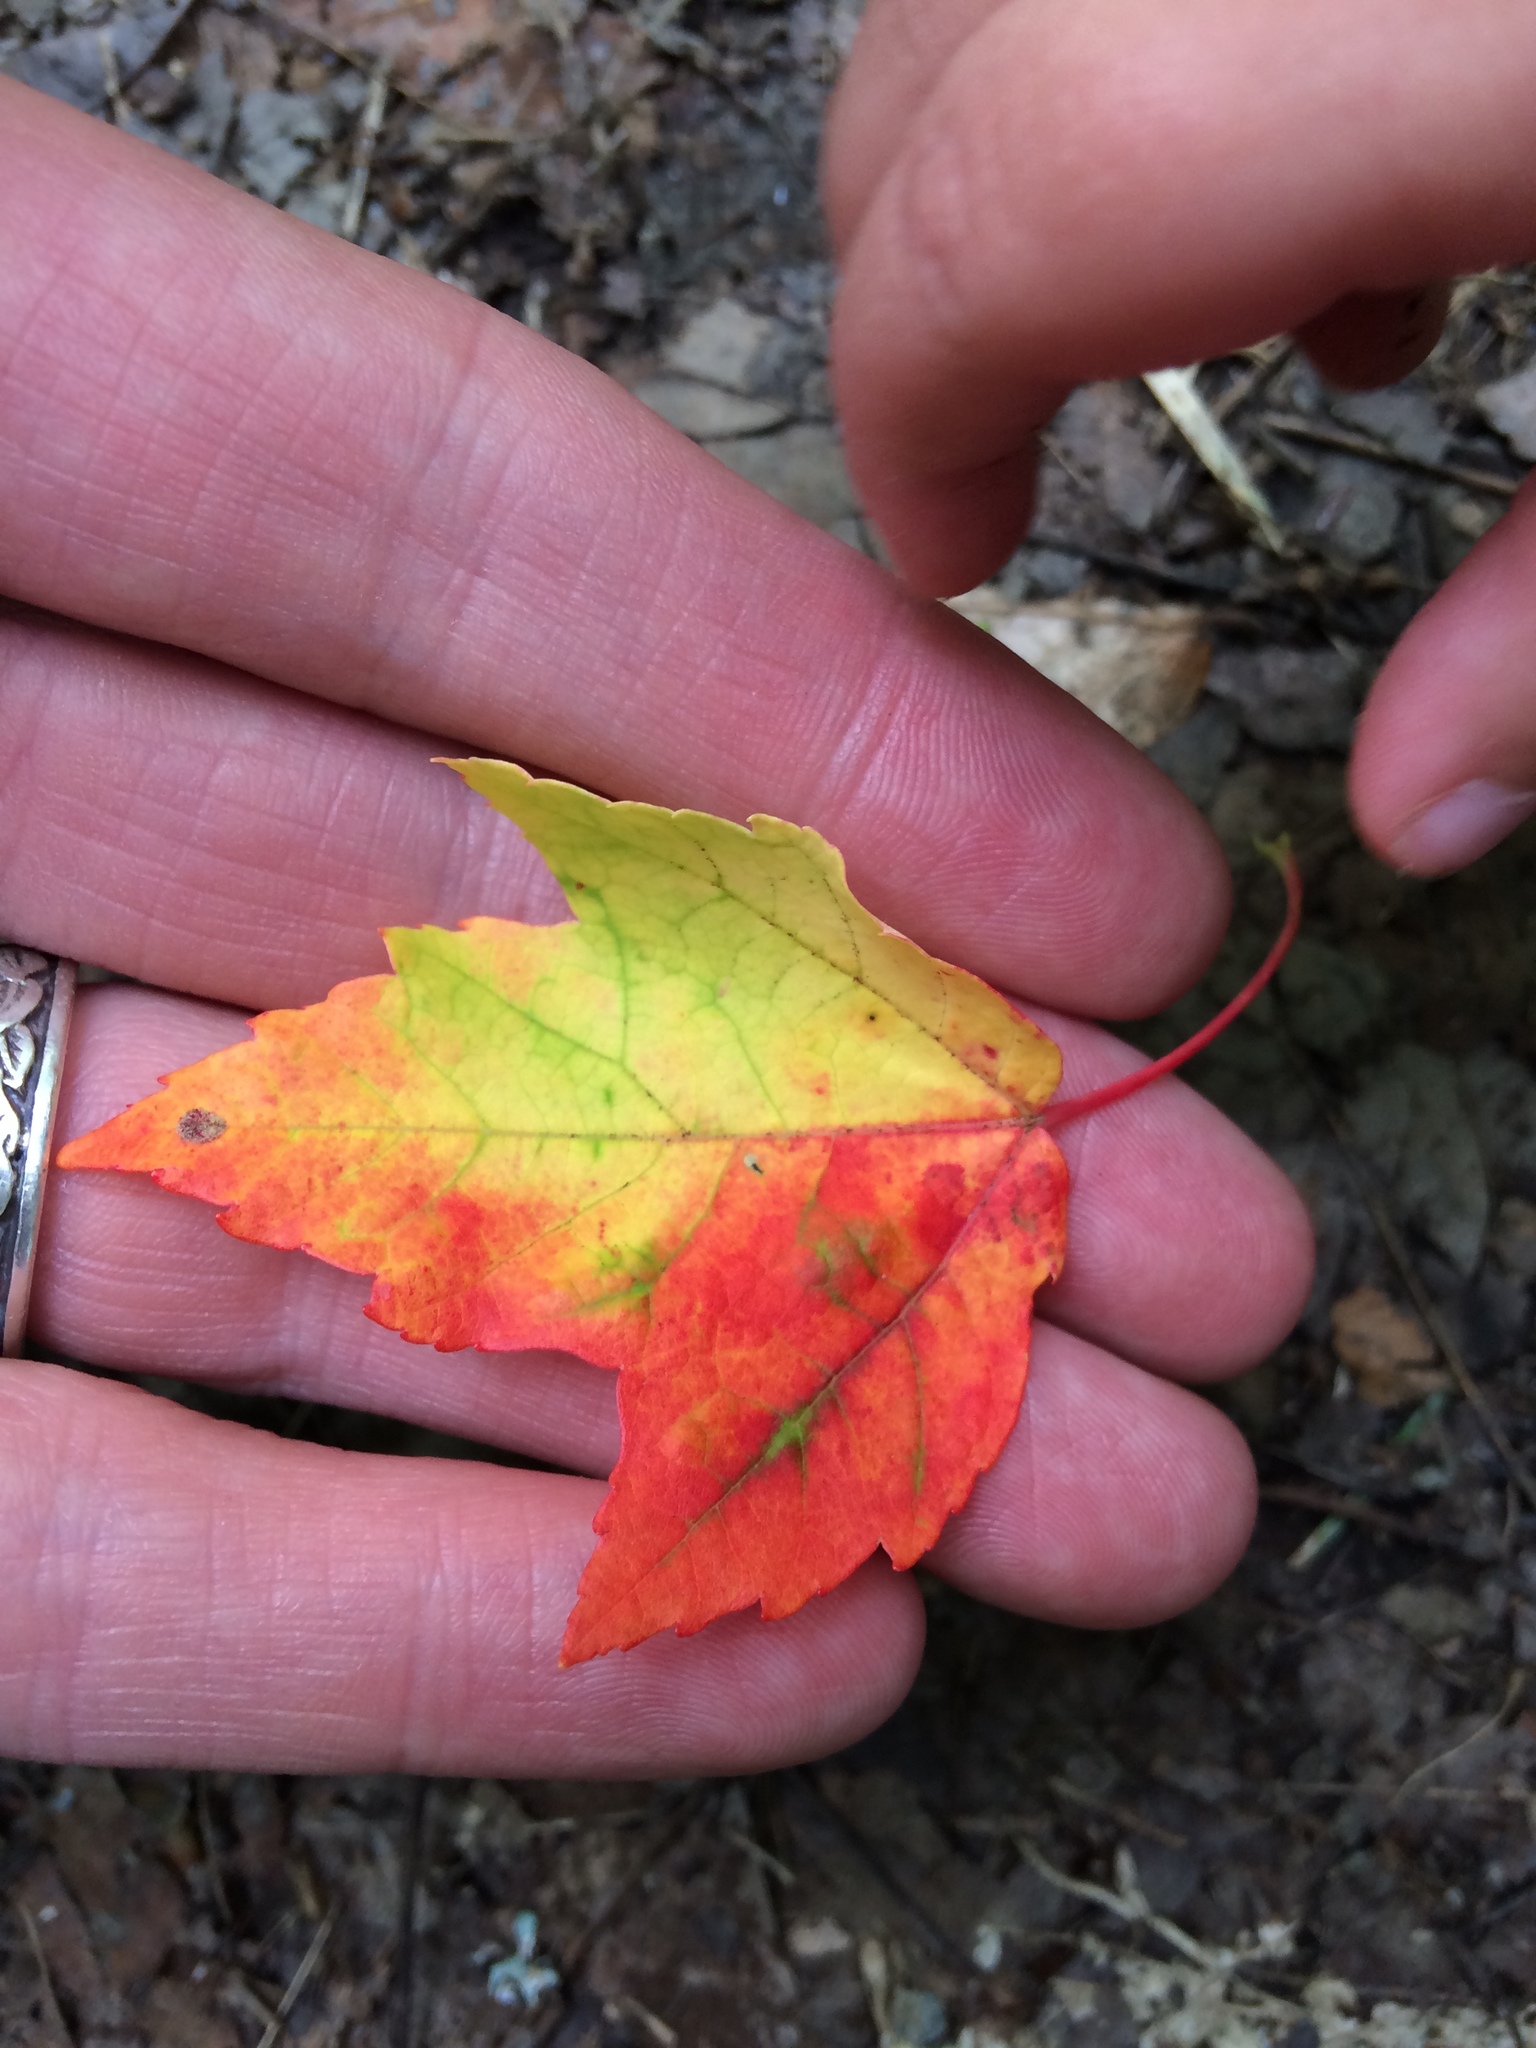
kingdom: Plantae
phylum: Tracheophyta
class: Magnoliopsida
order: Sapindales
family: Sapindaceae
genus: Acer
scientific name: Acer rubrum
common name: Red maple
